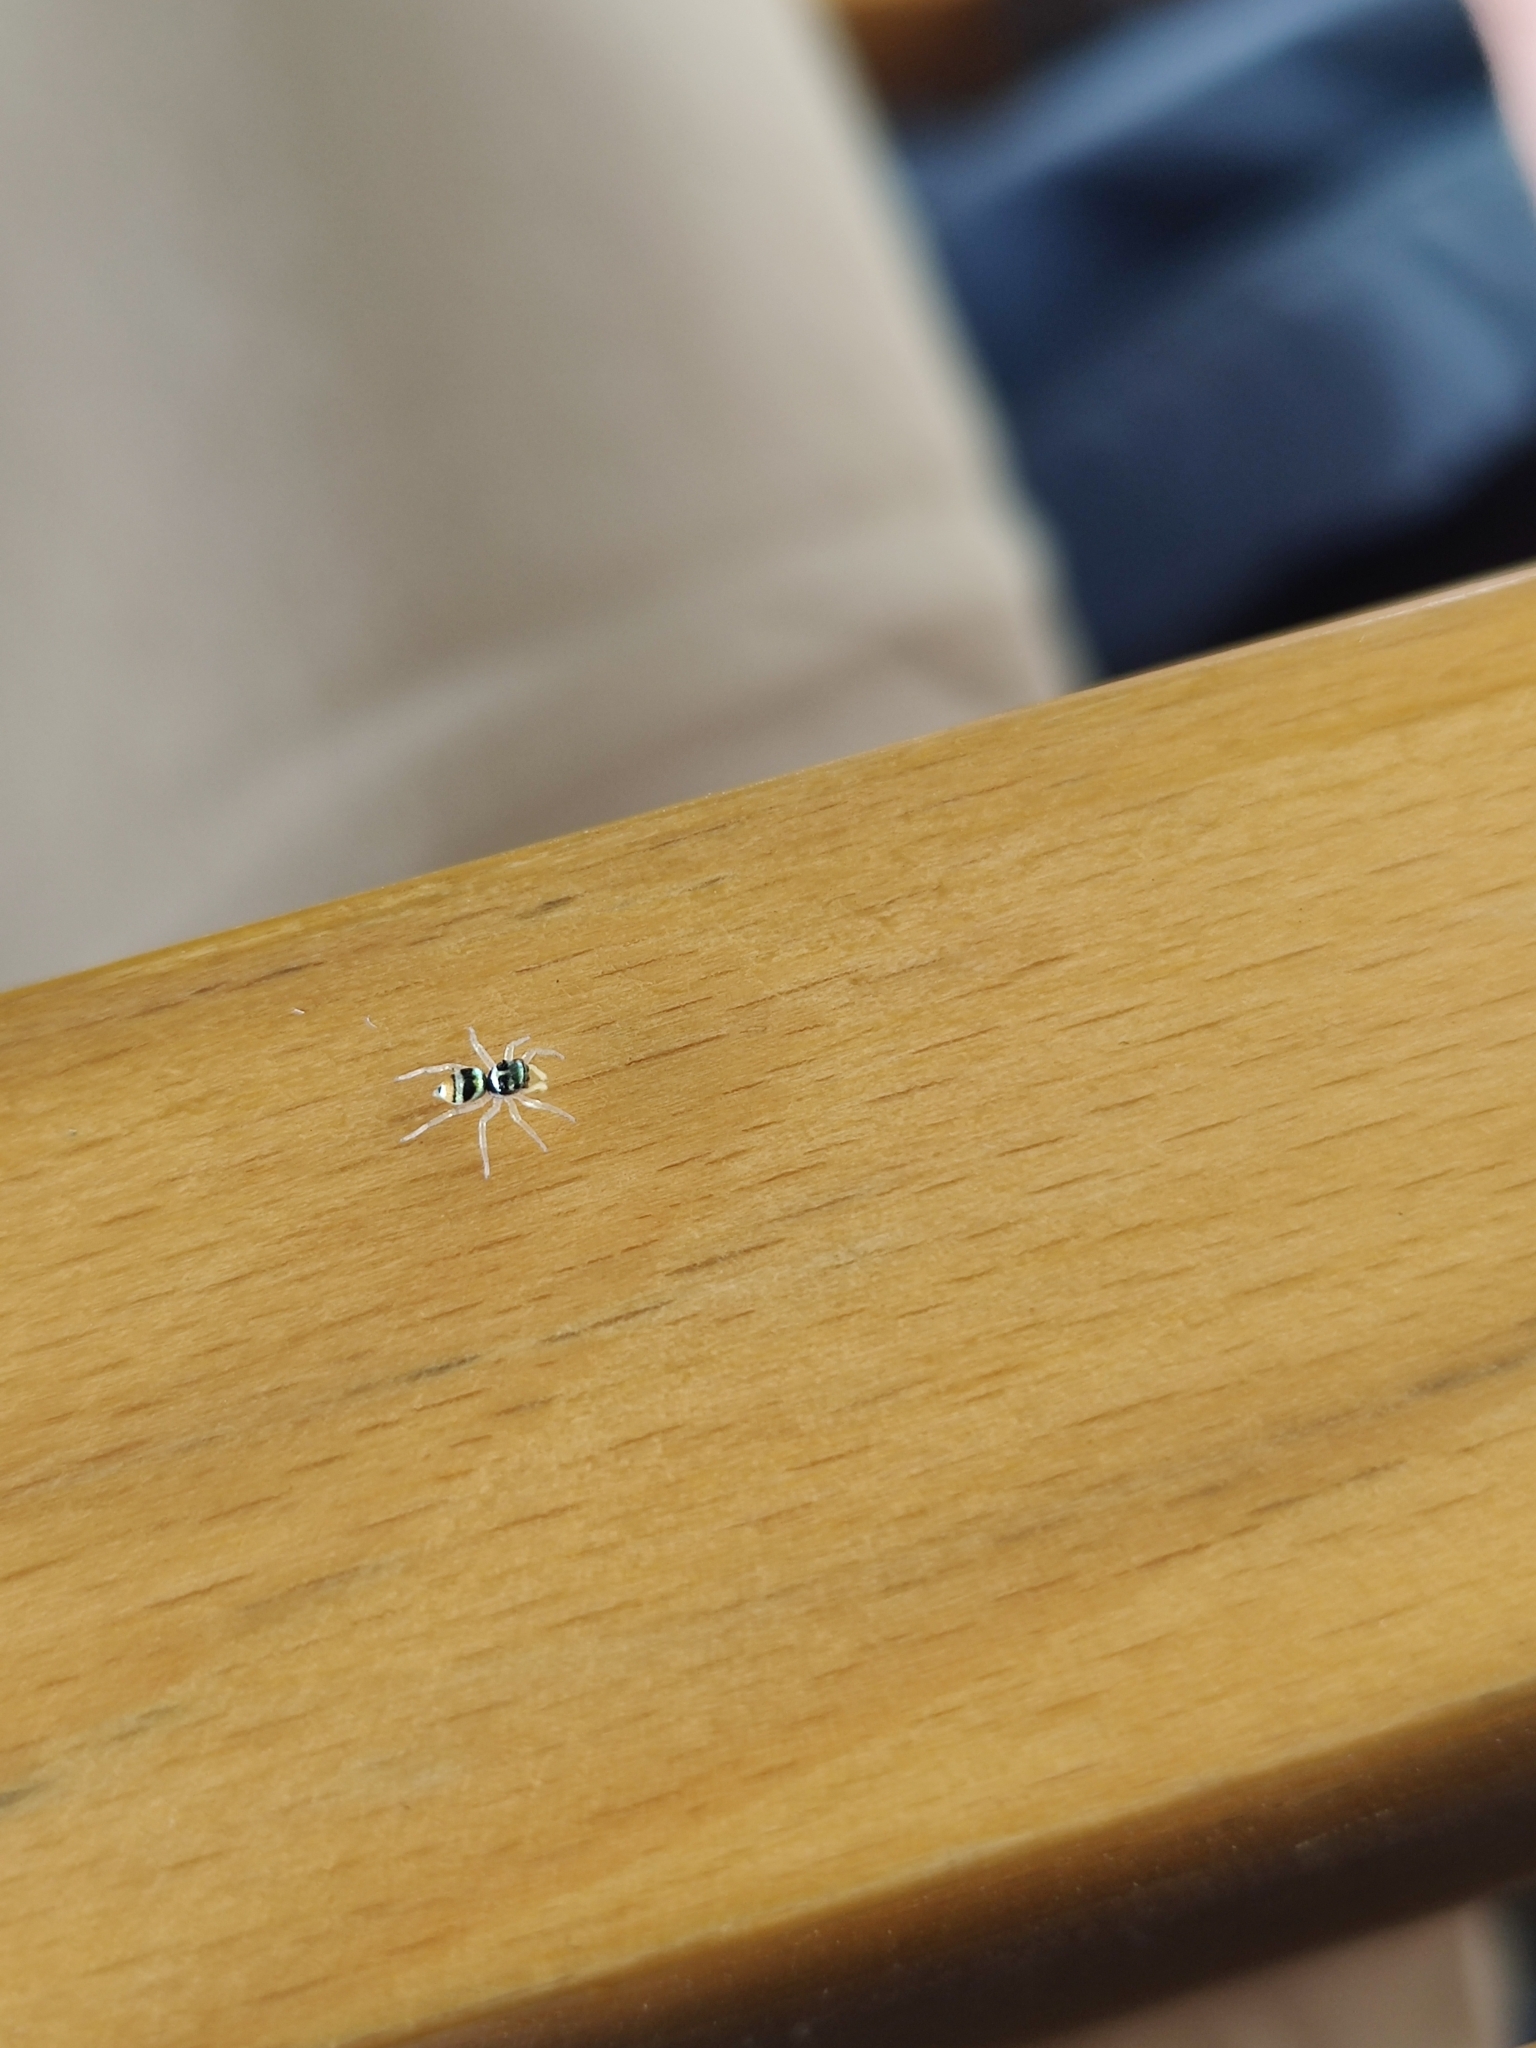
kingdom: Animalia
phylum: Arthropoda
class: Arachnida
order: Araneae
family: Salticidae
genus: Phintella
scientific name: Phintella vittata
